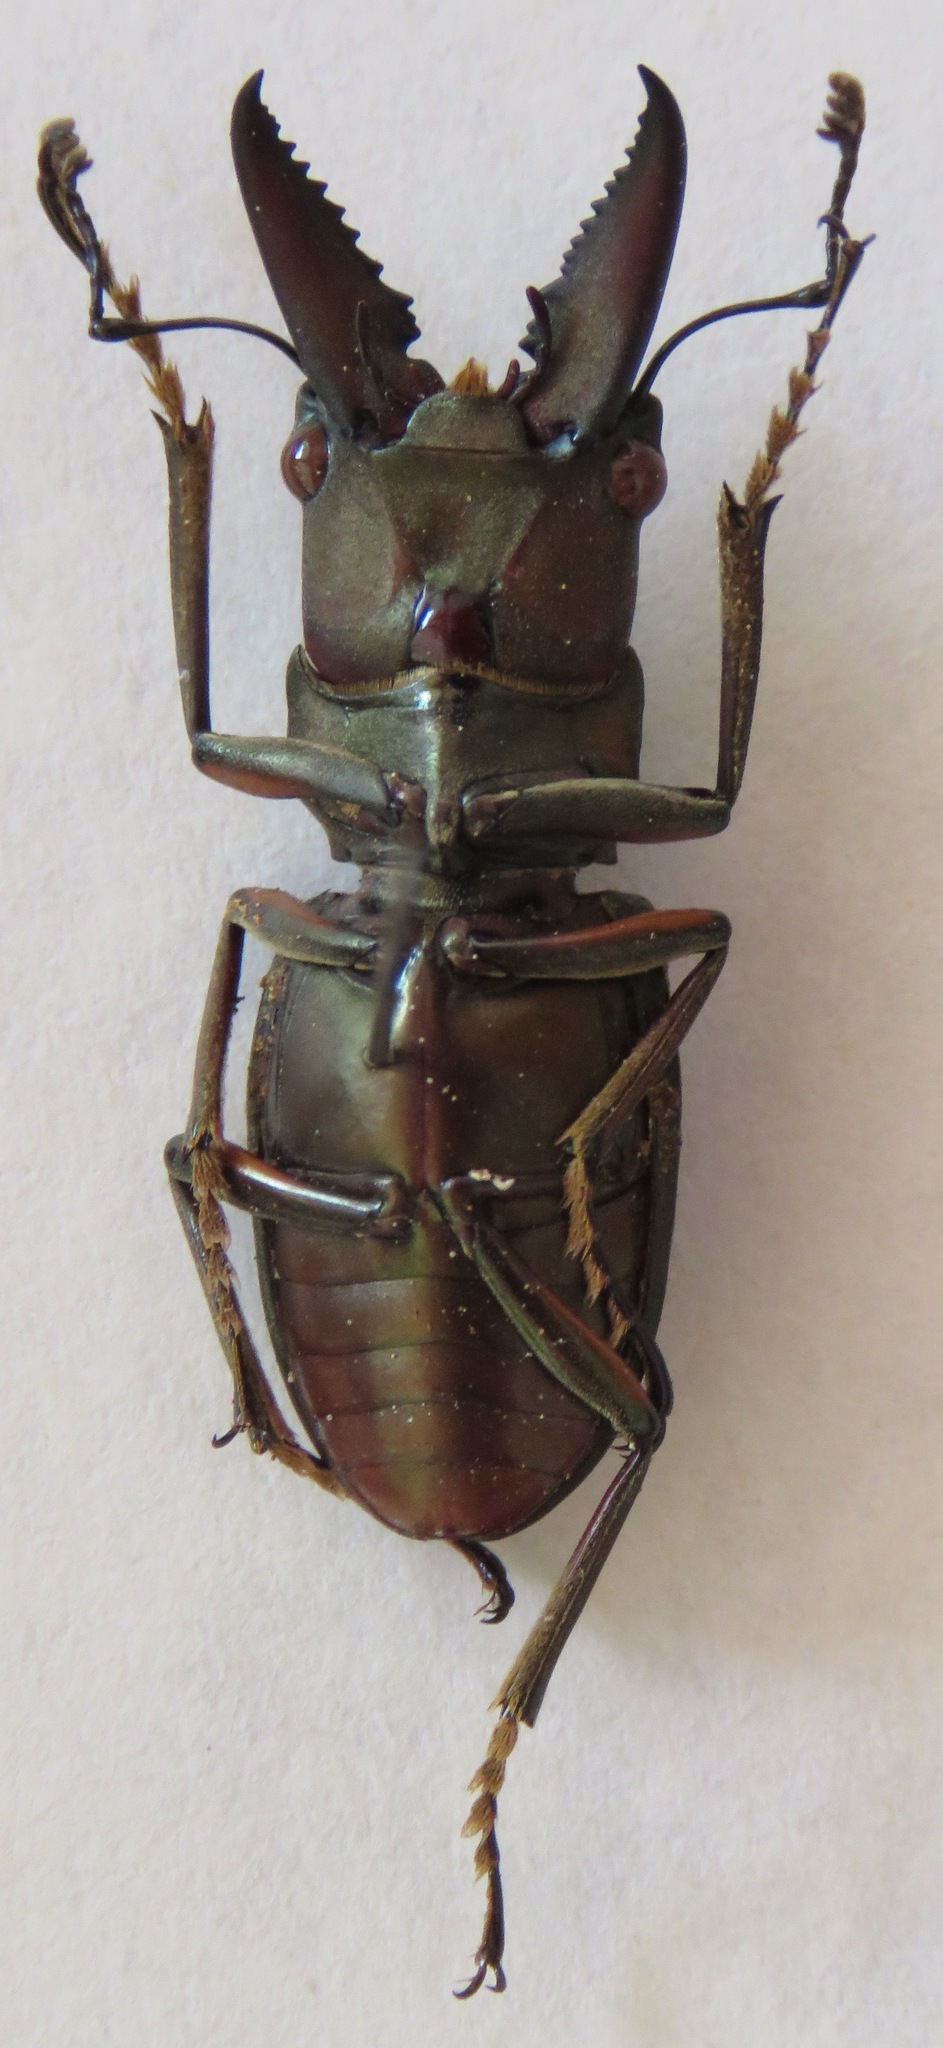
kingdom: Animalia
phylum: Arthropoda
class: Insecta
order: Coleoptera
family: Lucanidae
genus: Cyclommatinus
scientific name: Cyclommatinus albersii
